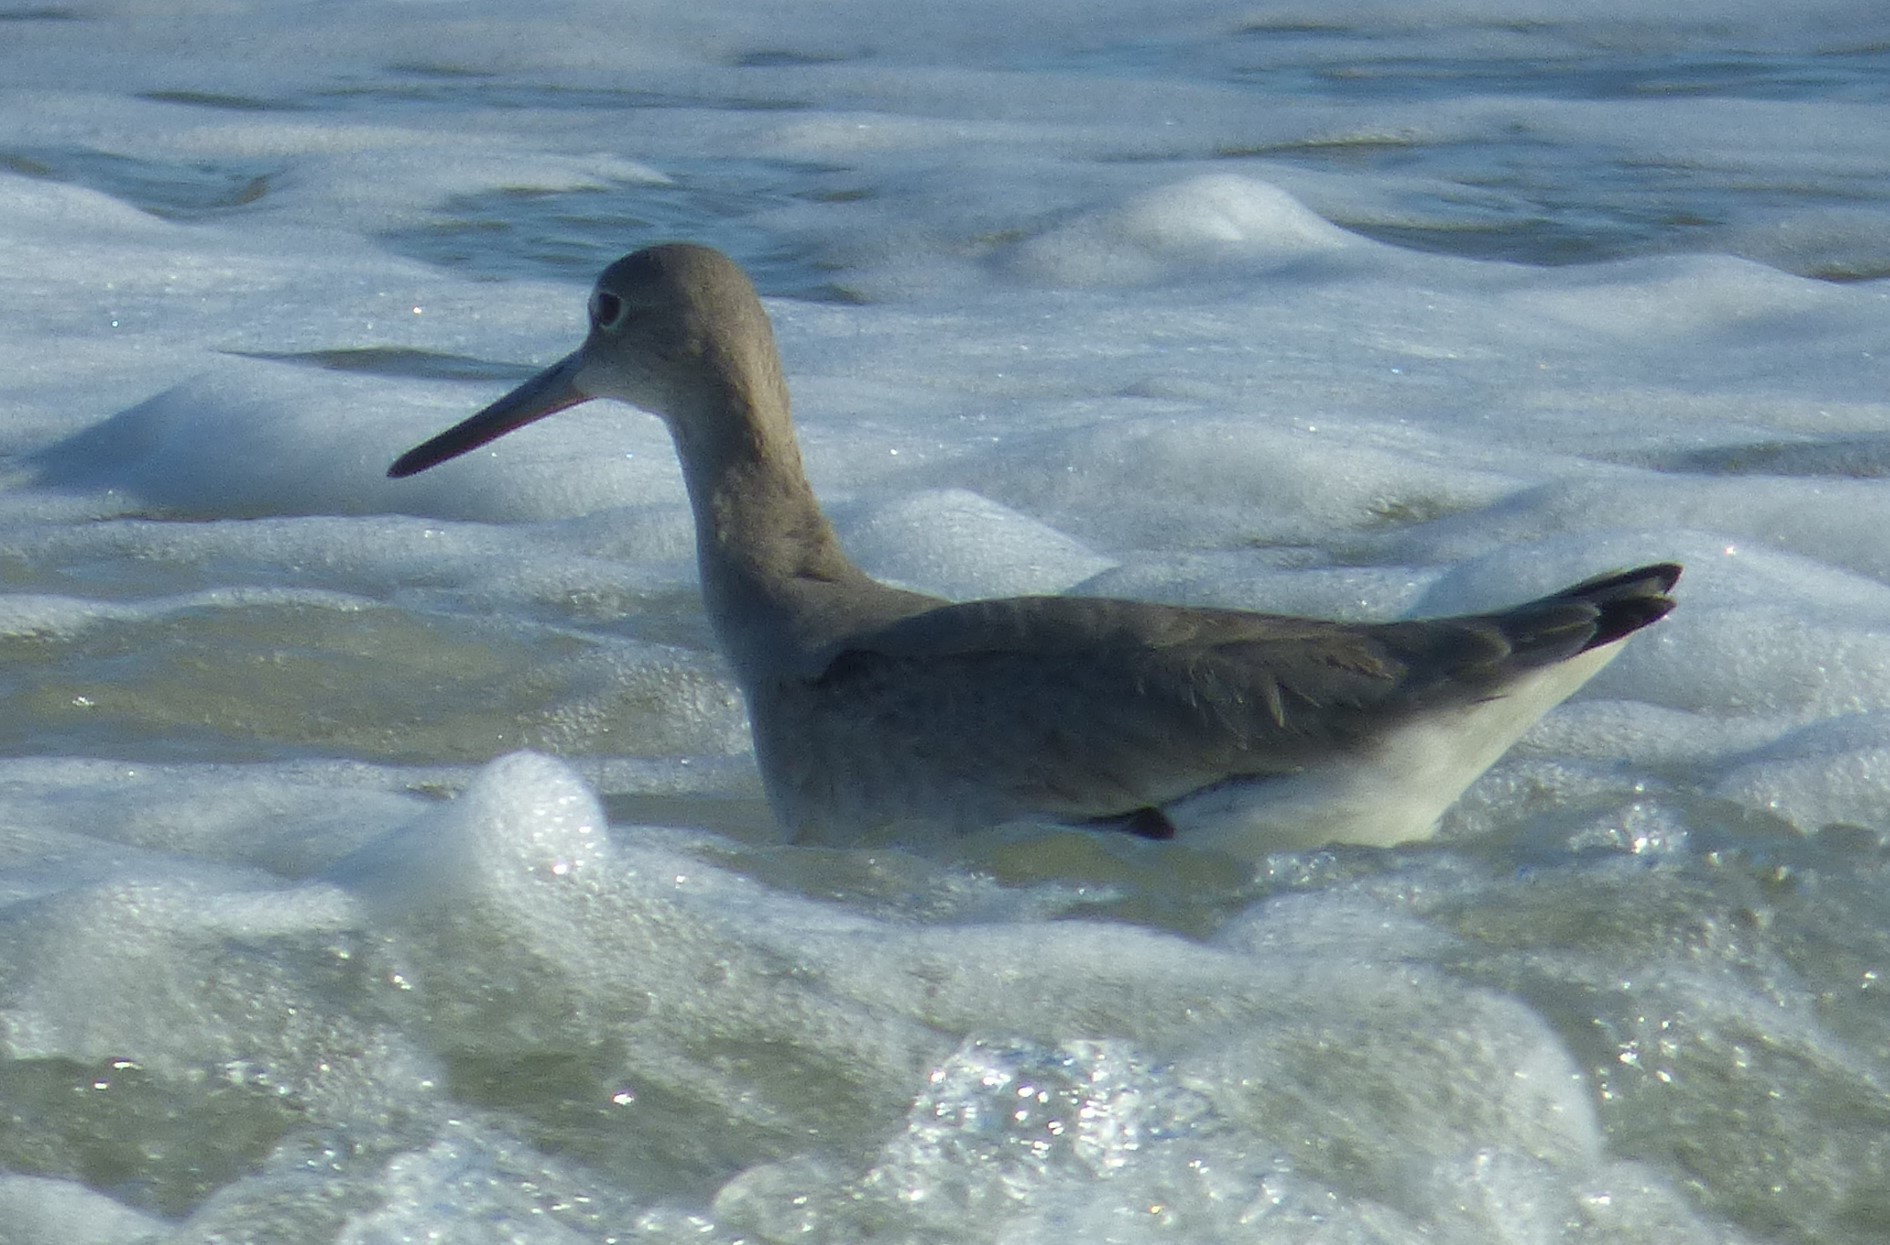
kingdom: Animalia
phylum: Chordata
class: Aves
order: Charadriiformes
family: Scolopacidae
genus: Tringa
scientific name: Tringa semipalmata
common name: Willet
